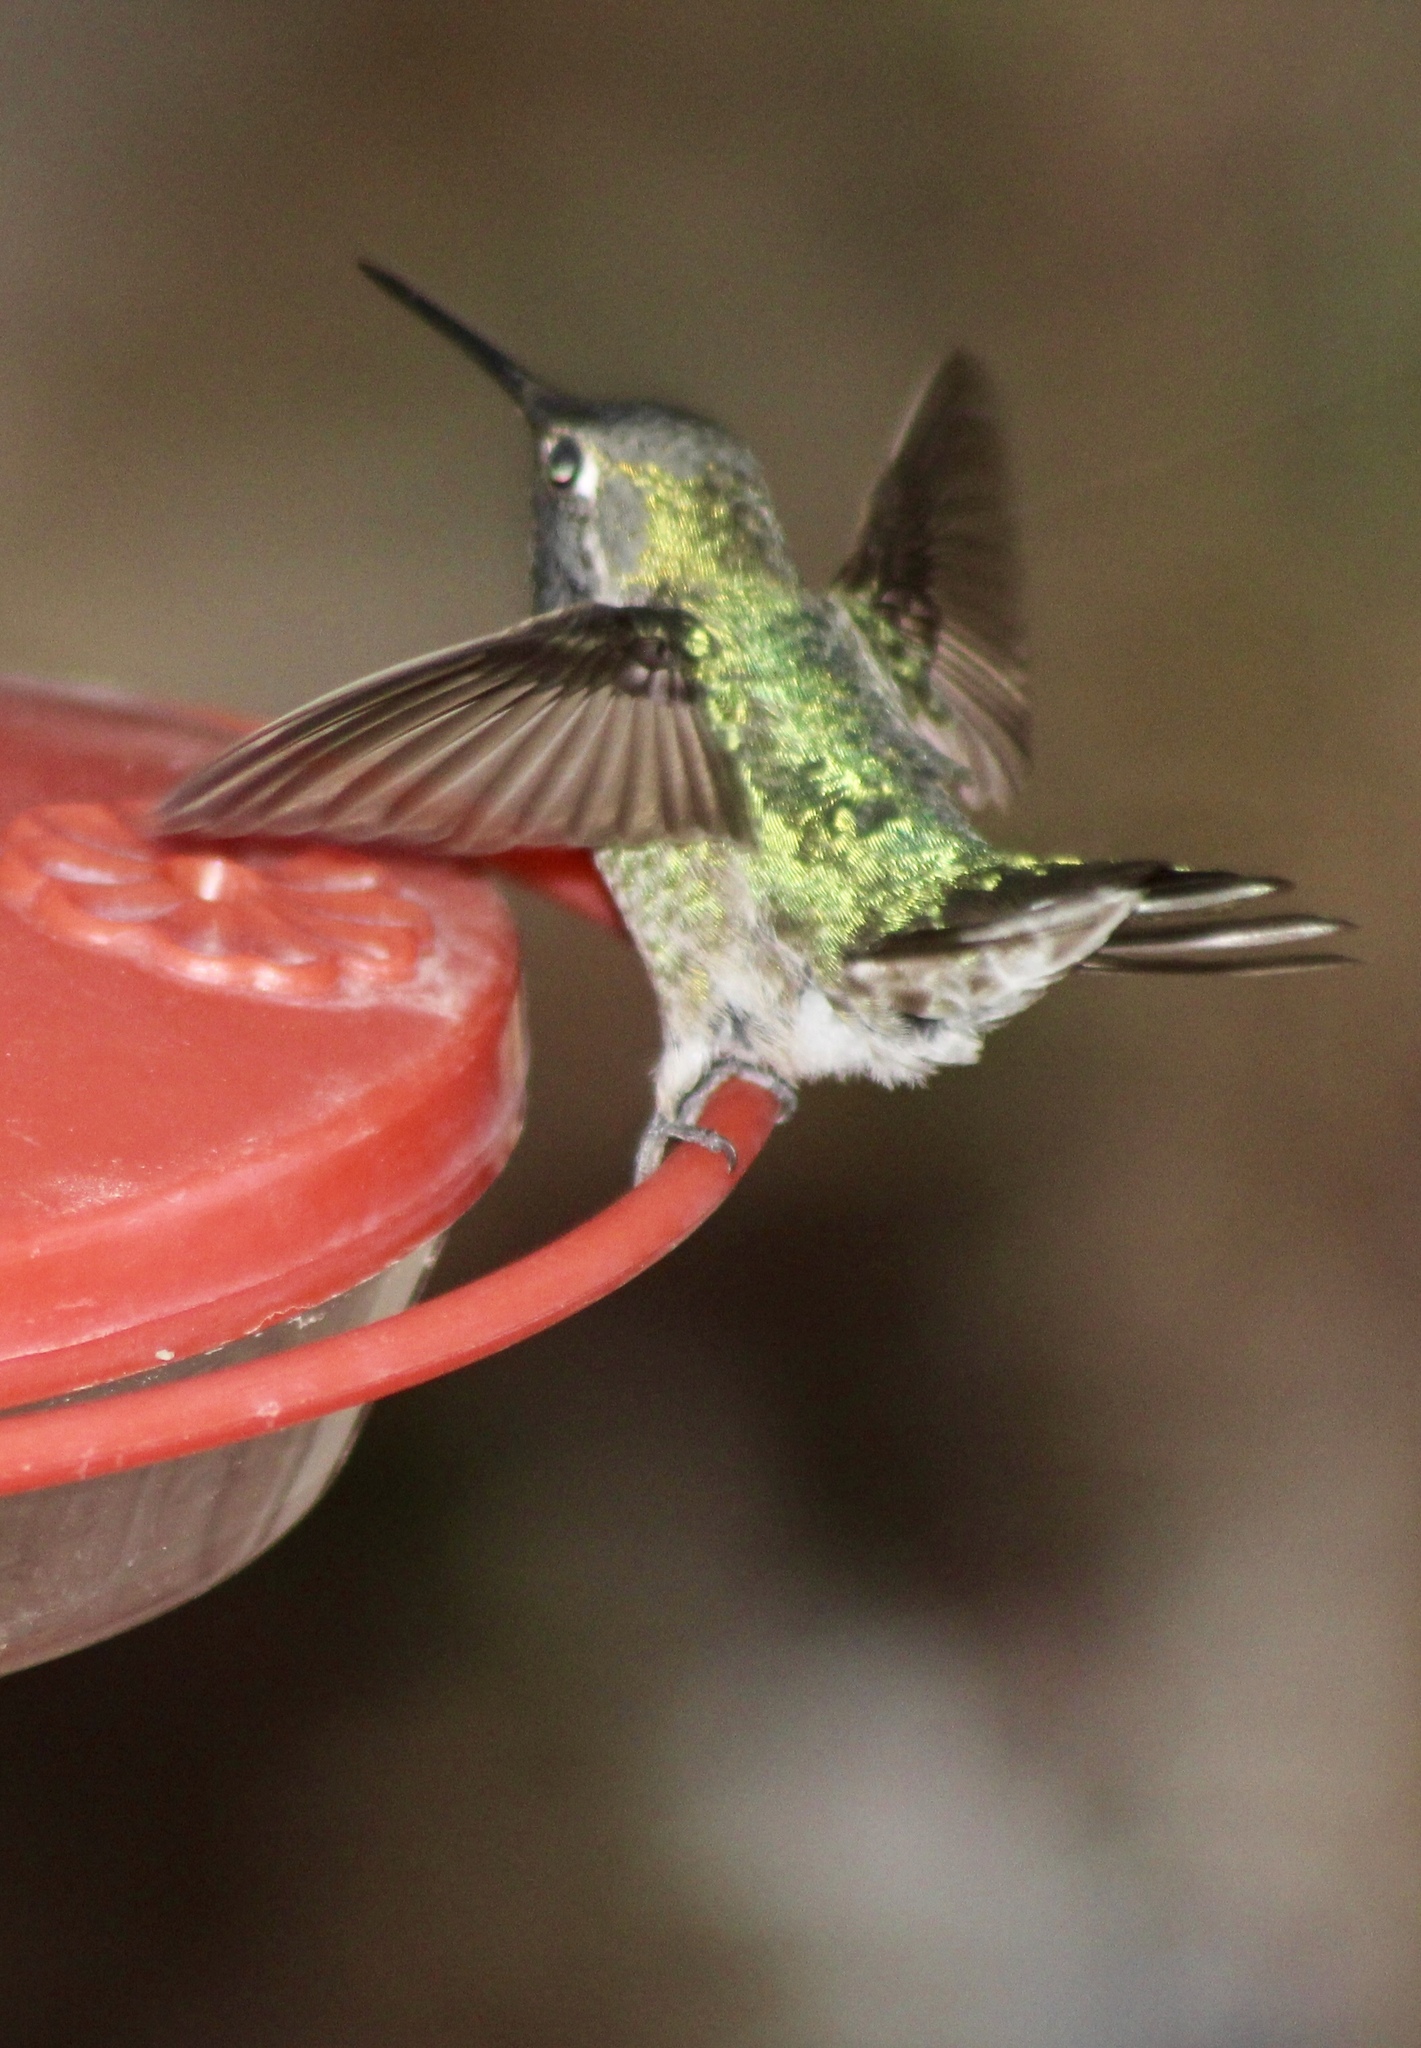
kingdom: Animalia
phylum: Chordata
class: Aves
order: Apodiformes
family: Trochilidae
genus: Calypte
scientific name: Calypte anna
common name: Anna's hummingbird
